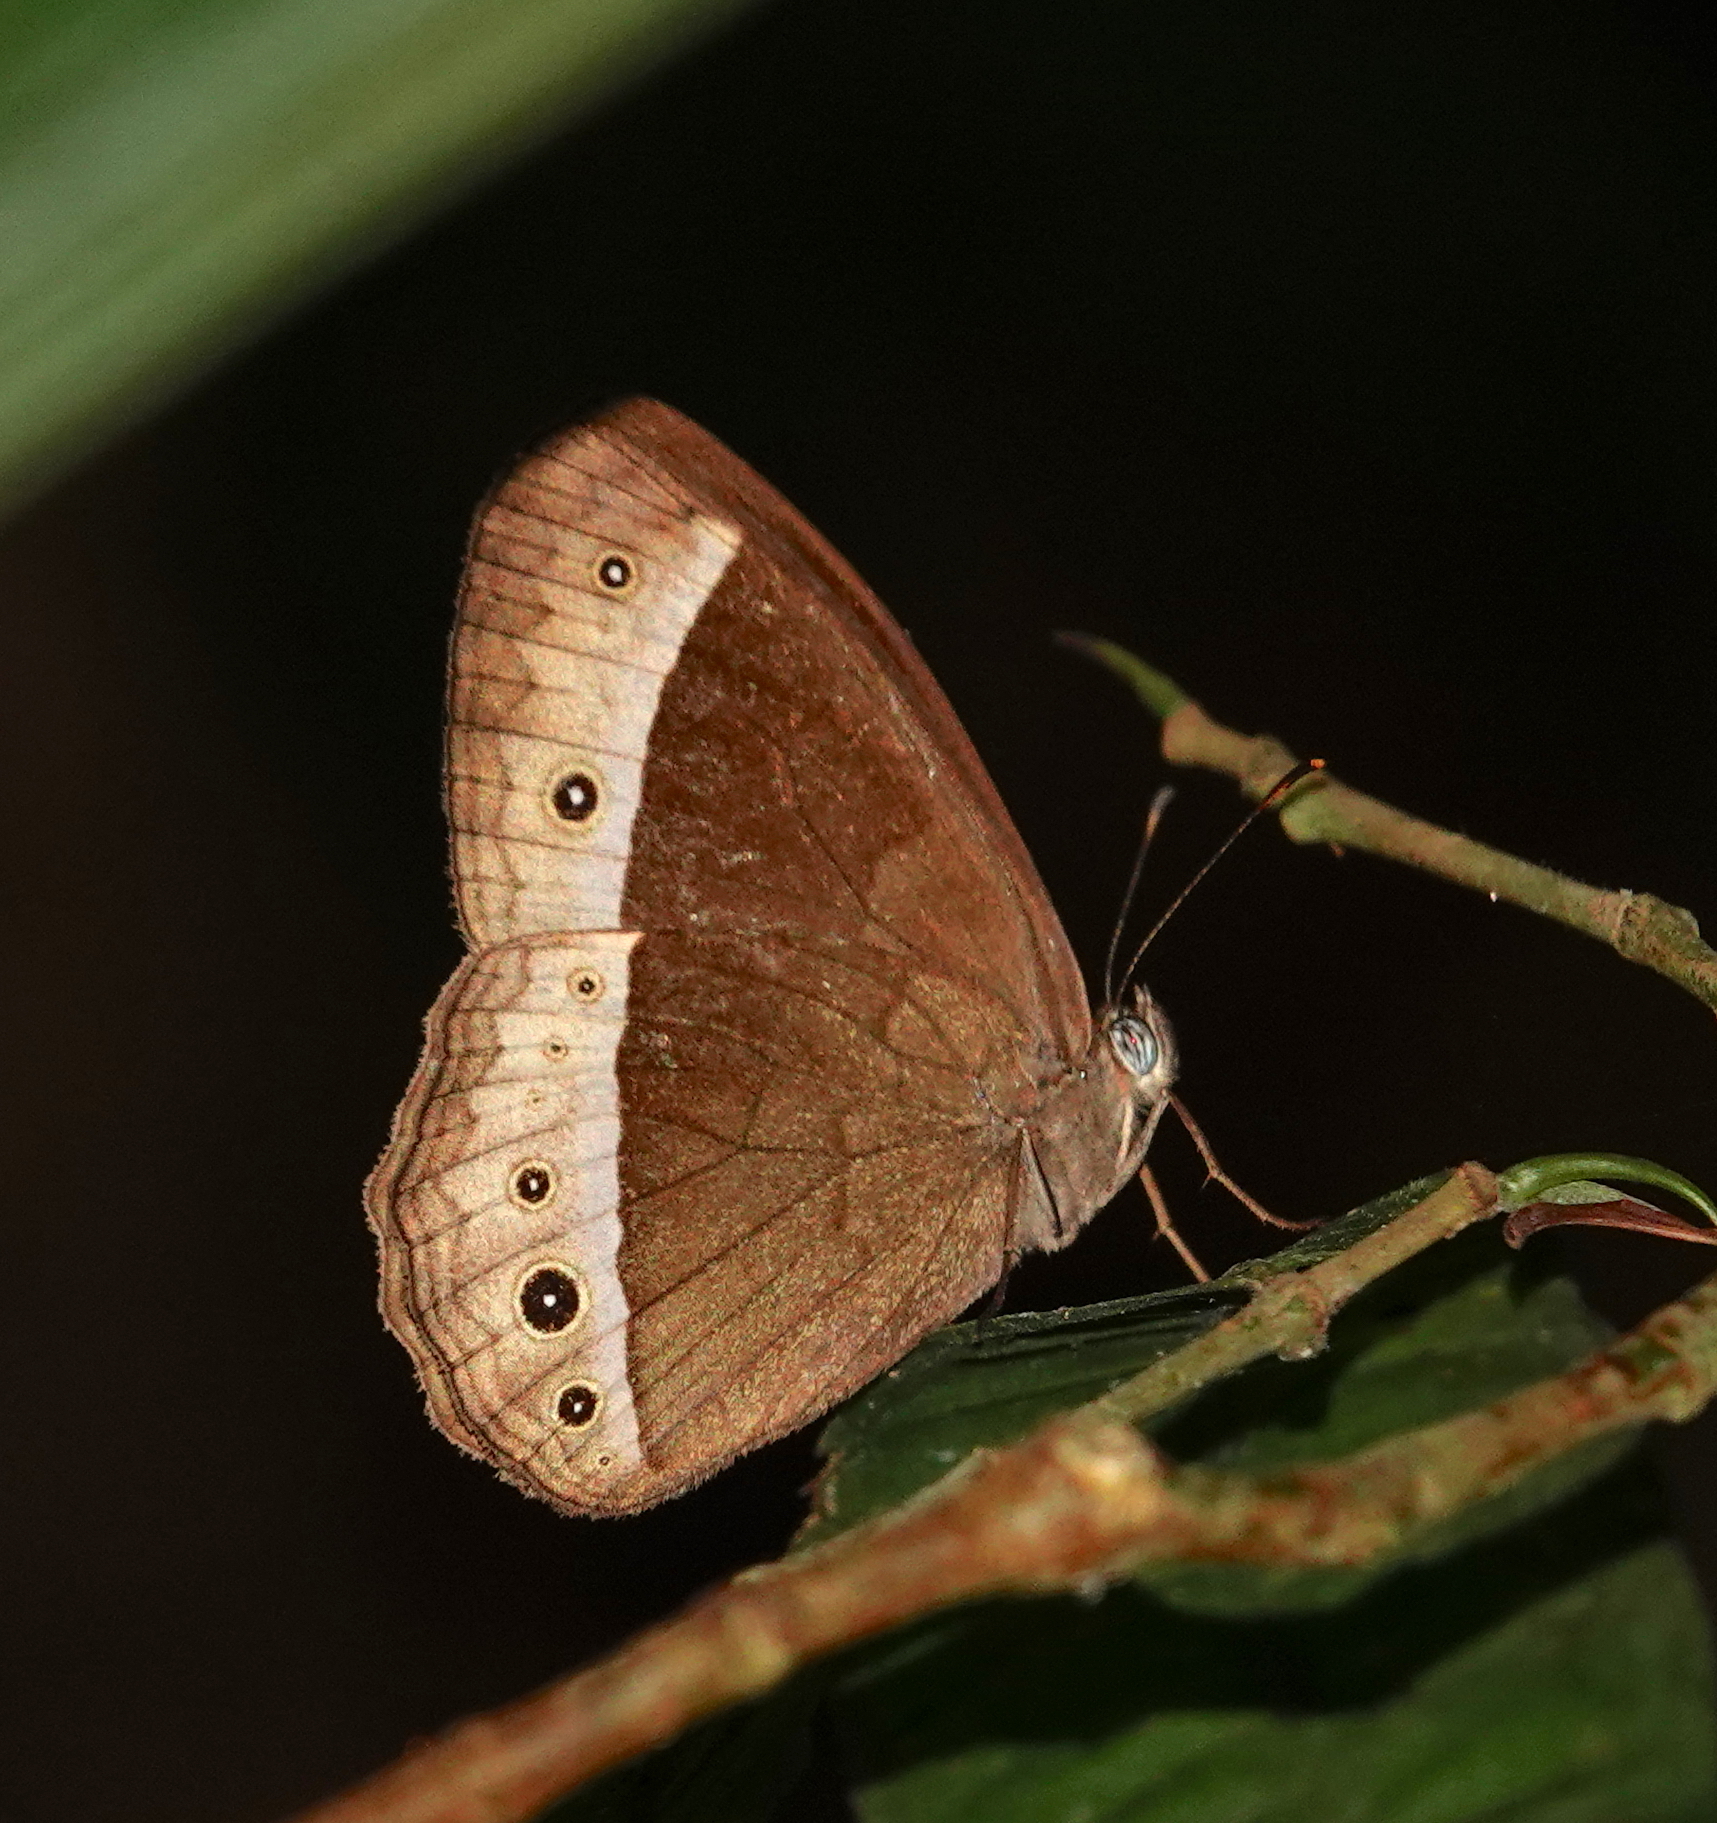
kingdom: Animalia
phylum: Arthropoda
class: Insecta
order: Lepidoptera
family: Nymphalidae
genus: Mycalesis
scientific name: Mycalesis sudra
